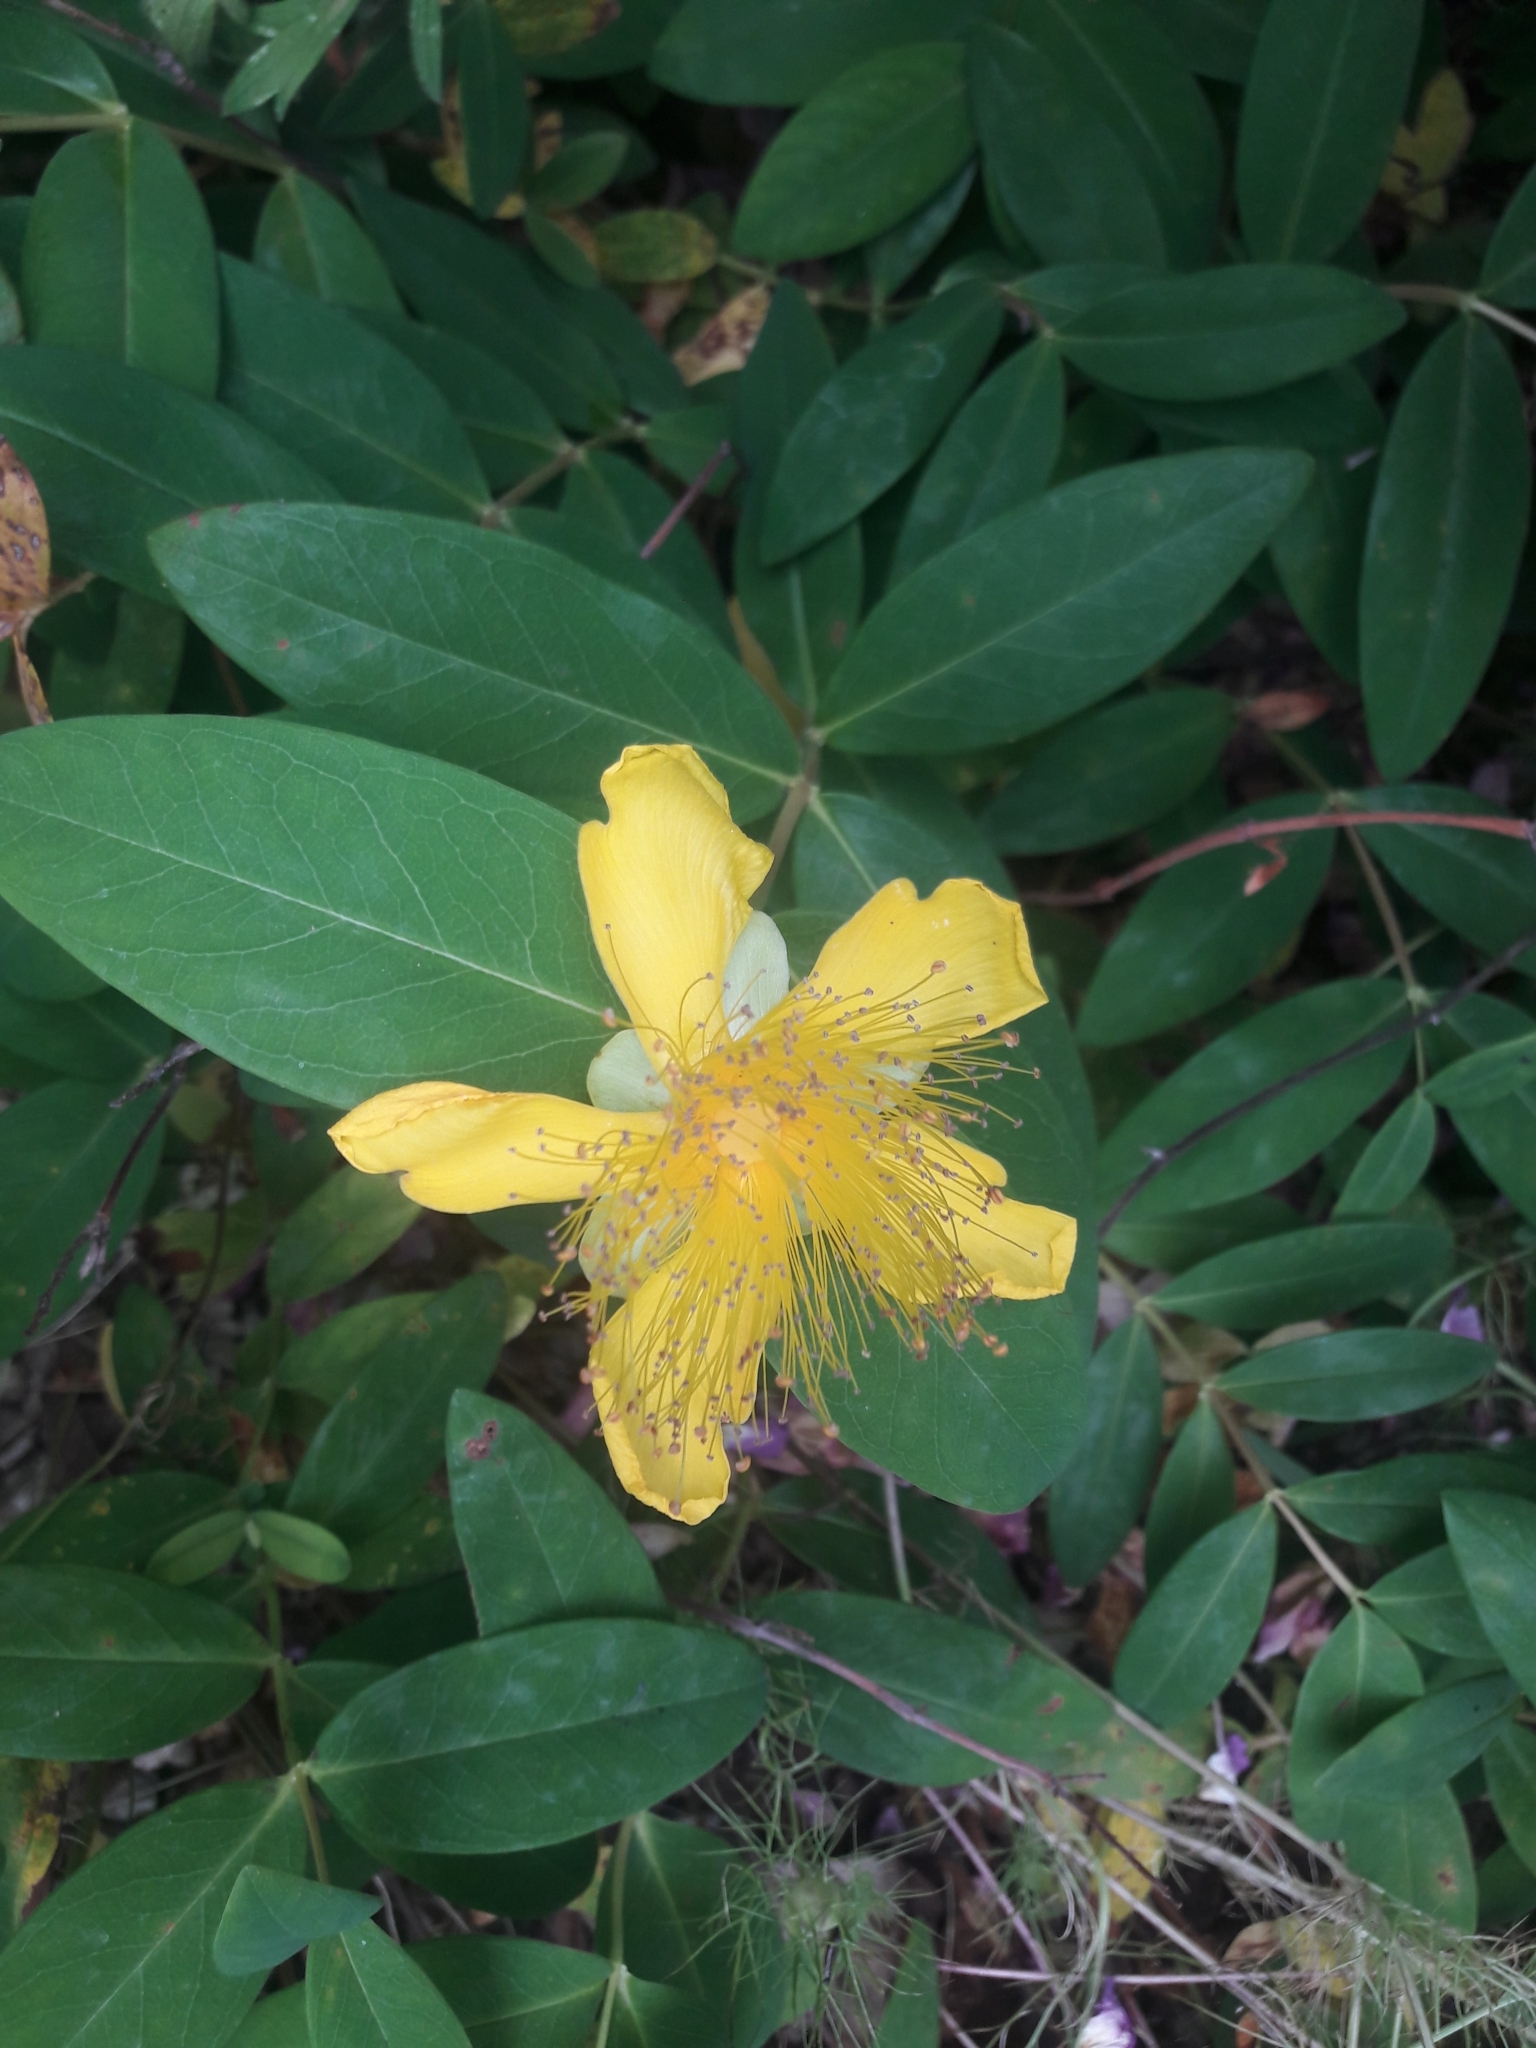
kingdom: Plantae
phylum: Tracheophyta
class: Magnoliopsida
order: Malpighiales
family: Hypericaceae
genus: Hypericum
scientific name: Hypericum calycinum
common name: Rose-of-sharon
